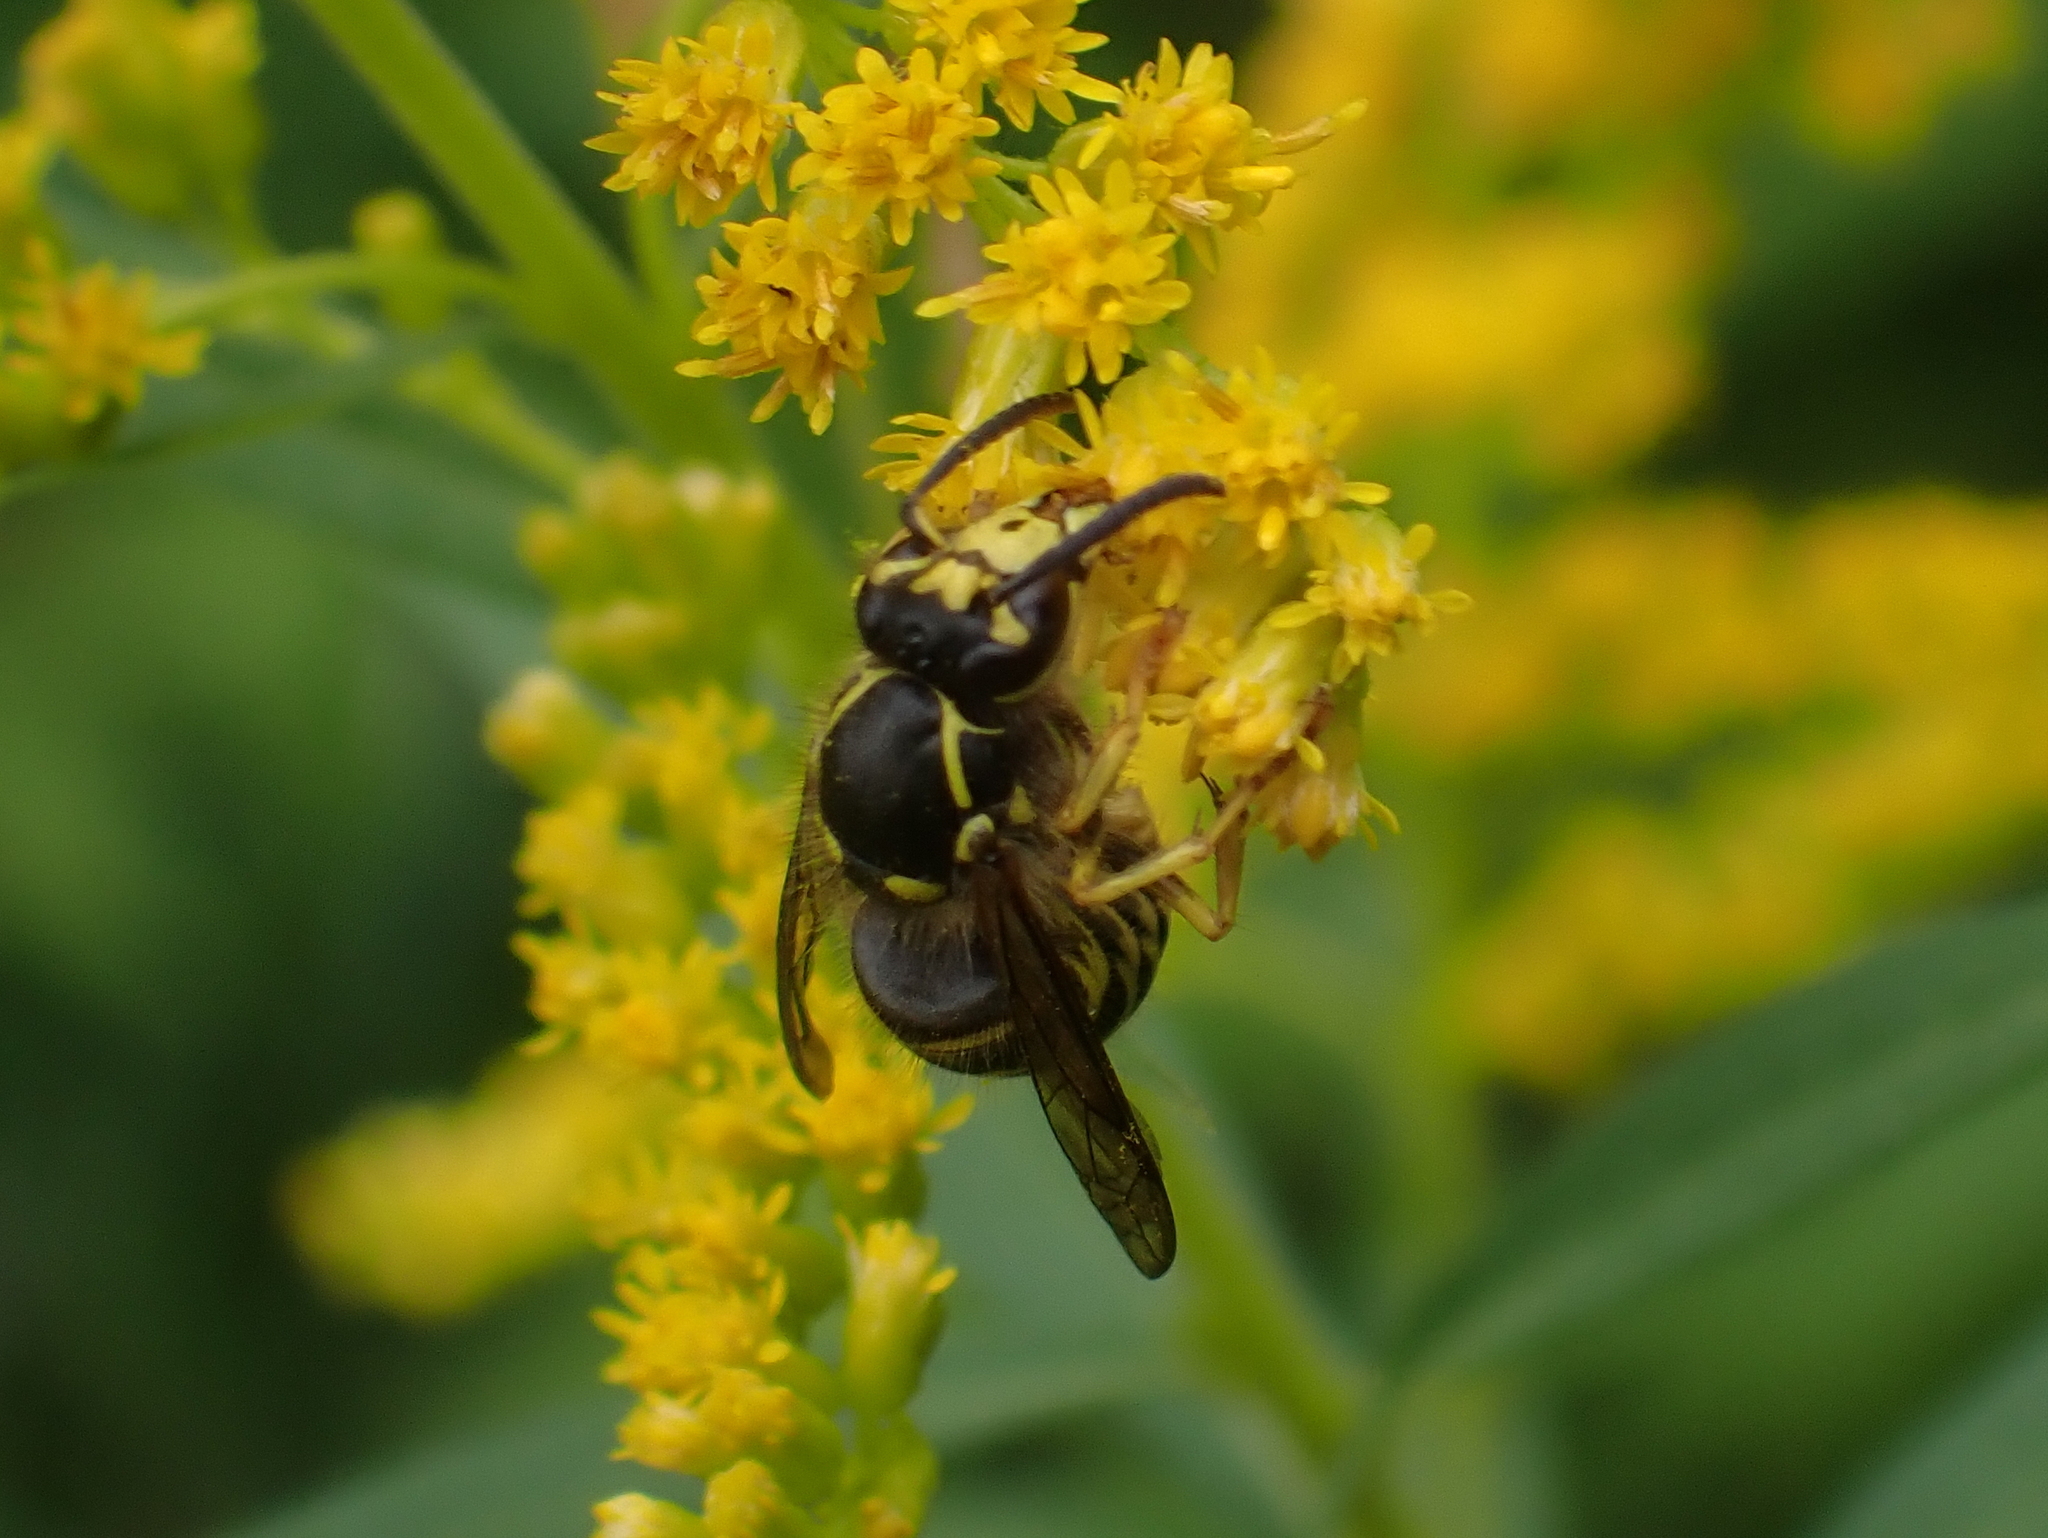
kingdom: Animalia
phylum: Arthropoda
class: Insecta
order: Hymenoptera
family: Vespidae
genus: Dolichovespula
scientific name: Dolichovespula arenaria
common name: Aerial yellowjacket
